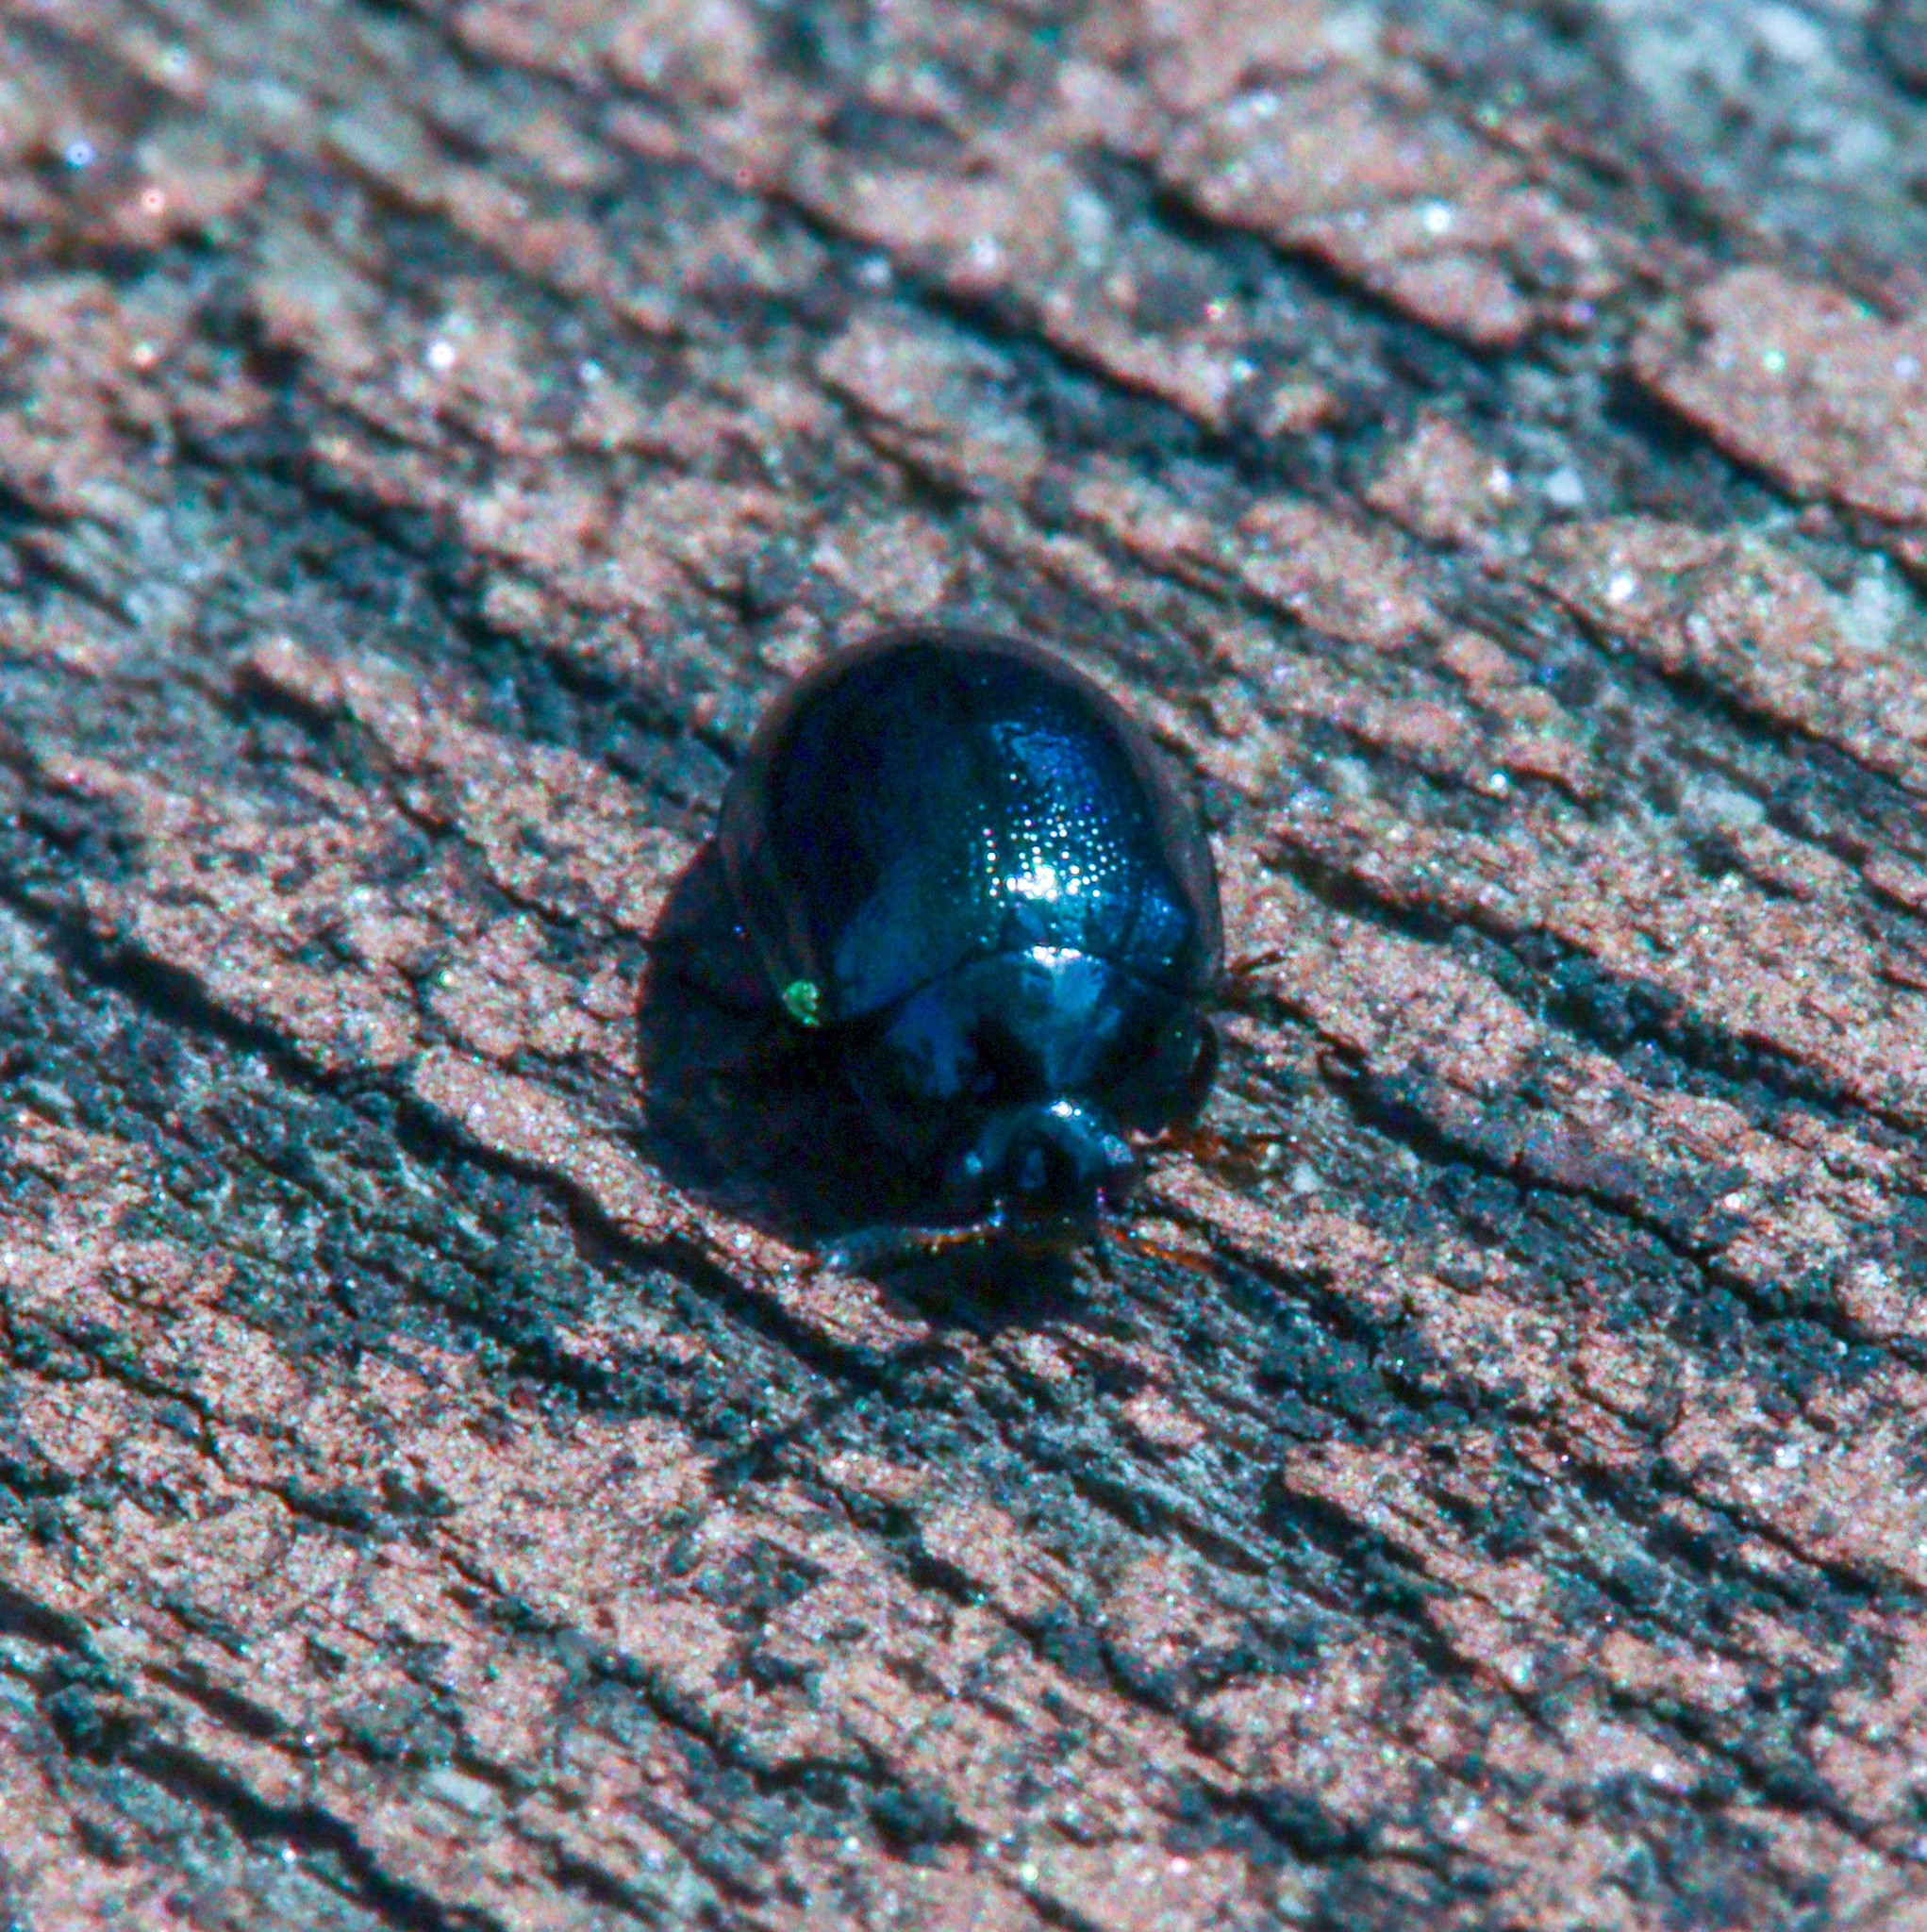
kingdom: Animalia
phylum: Arthropoda
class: Insecta
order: Coleoptera
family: Chrysomelidae
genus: Plagiodera
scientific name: Plagiodera versicolora
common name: Imported willow leaf beetle
